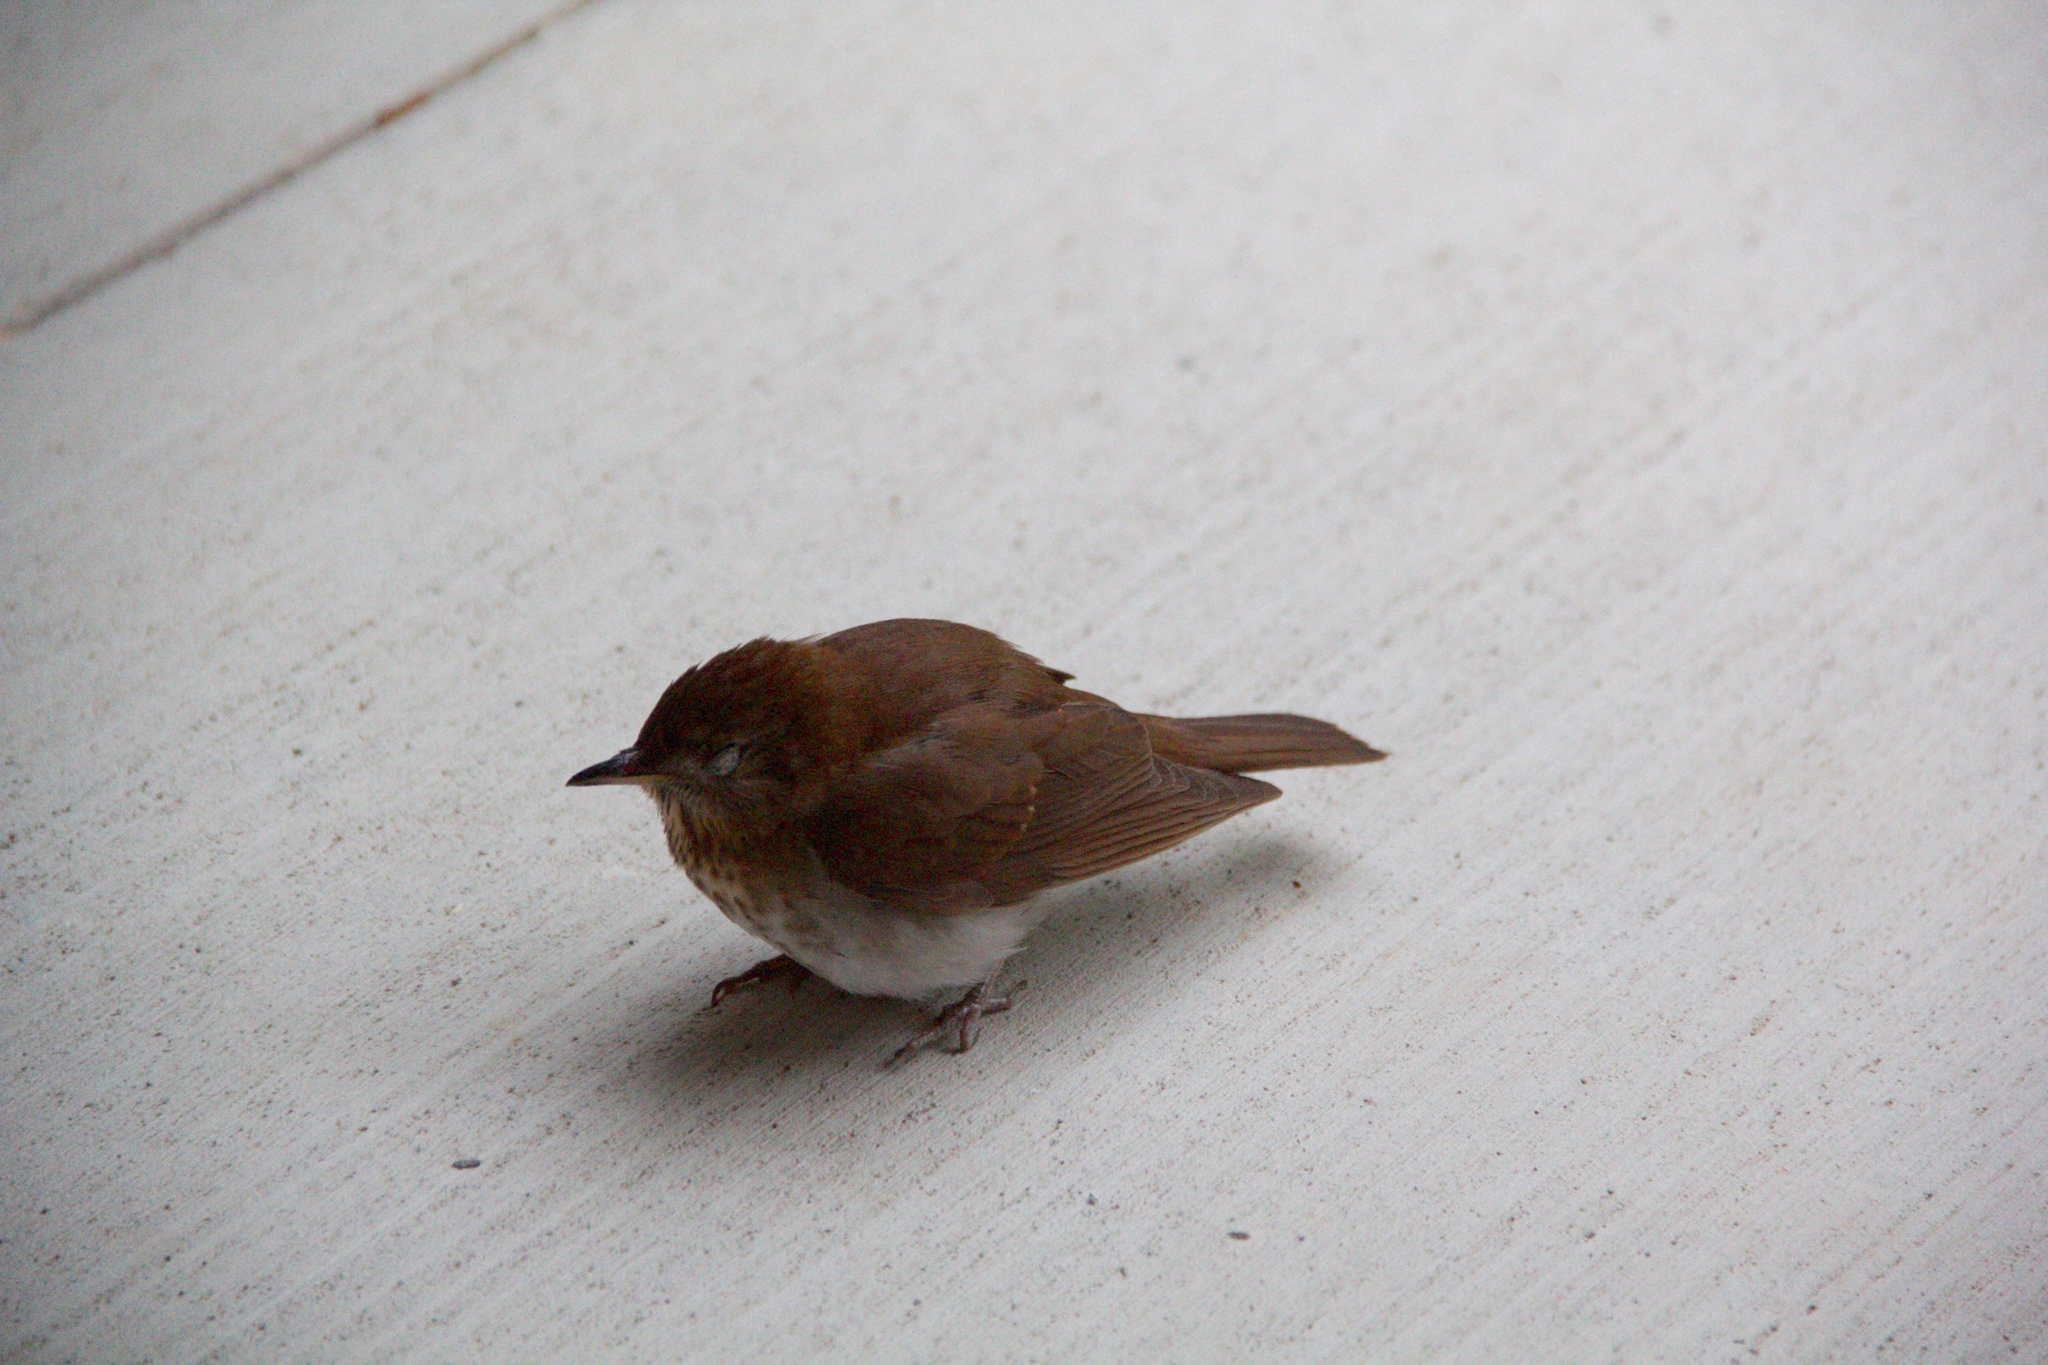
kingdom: Animalia
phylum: Chordata
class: Aves
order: Passeriformes
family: Turdidae
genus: Catharus
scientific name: Catharus fuscescens
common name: Veery
